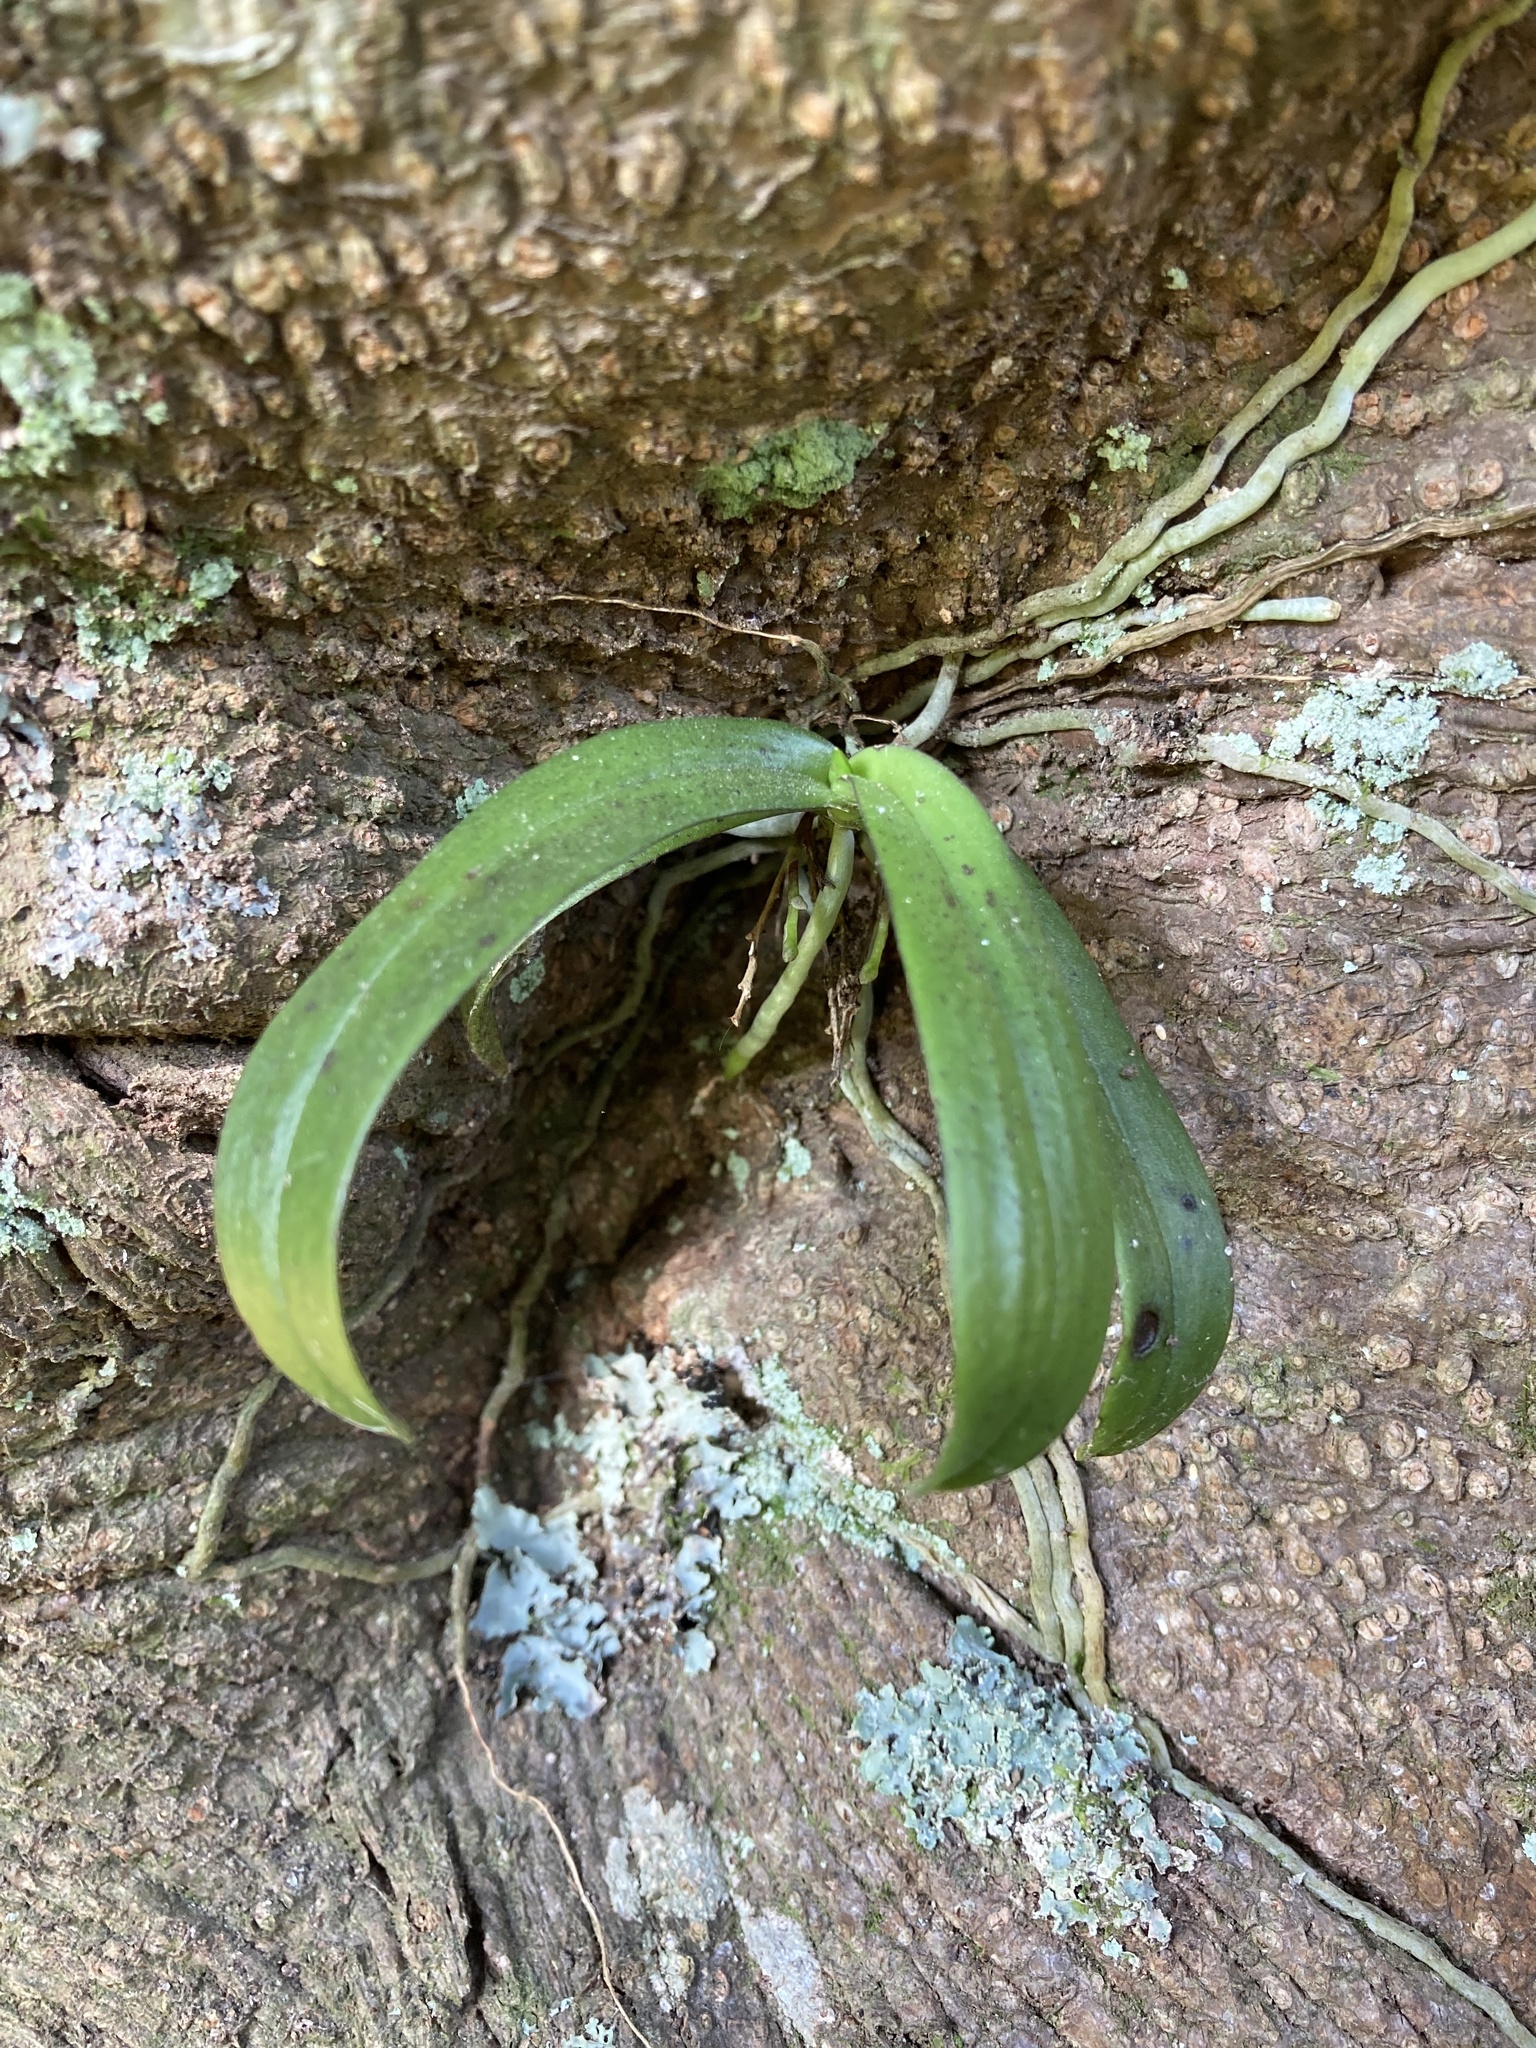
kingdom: Plantae
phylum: Tracheophyta
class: Liliopsida
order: Asparagales
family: Orchidaceae
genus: Drymoanthus
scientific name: Drymoanthus adversus
